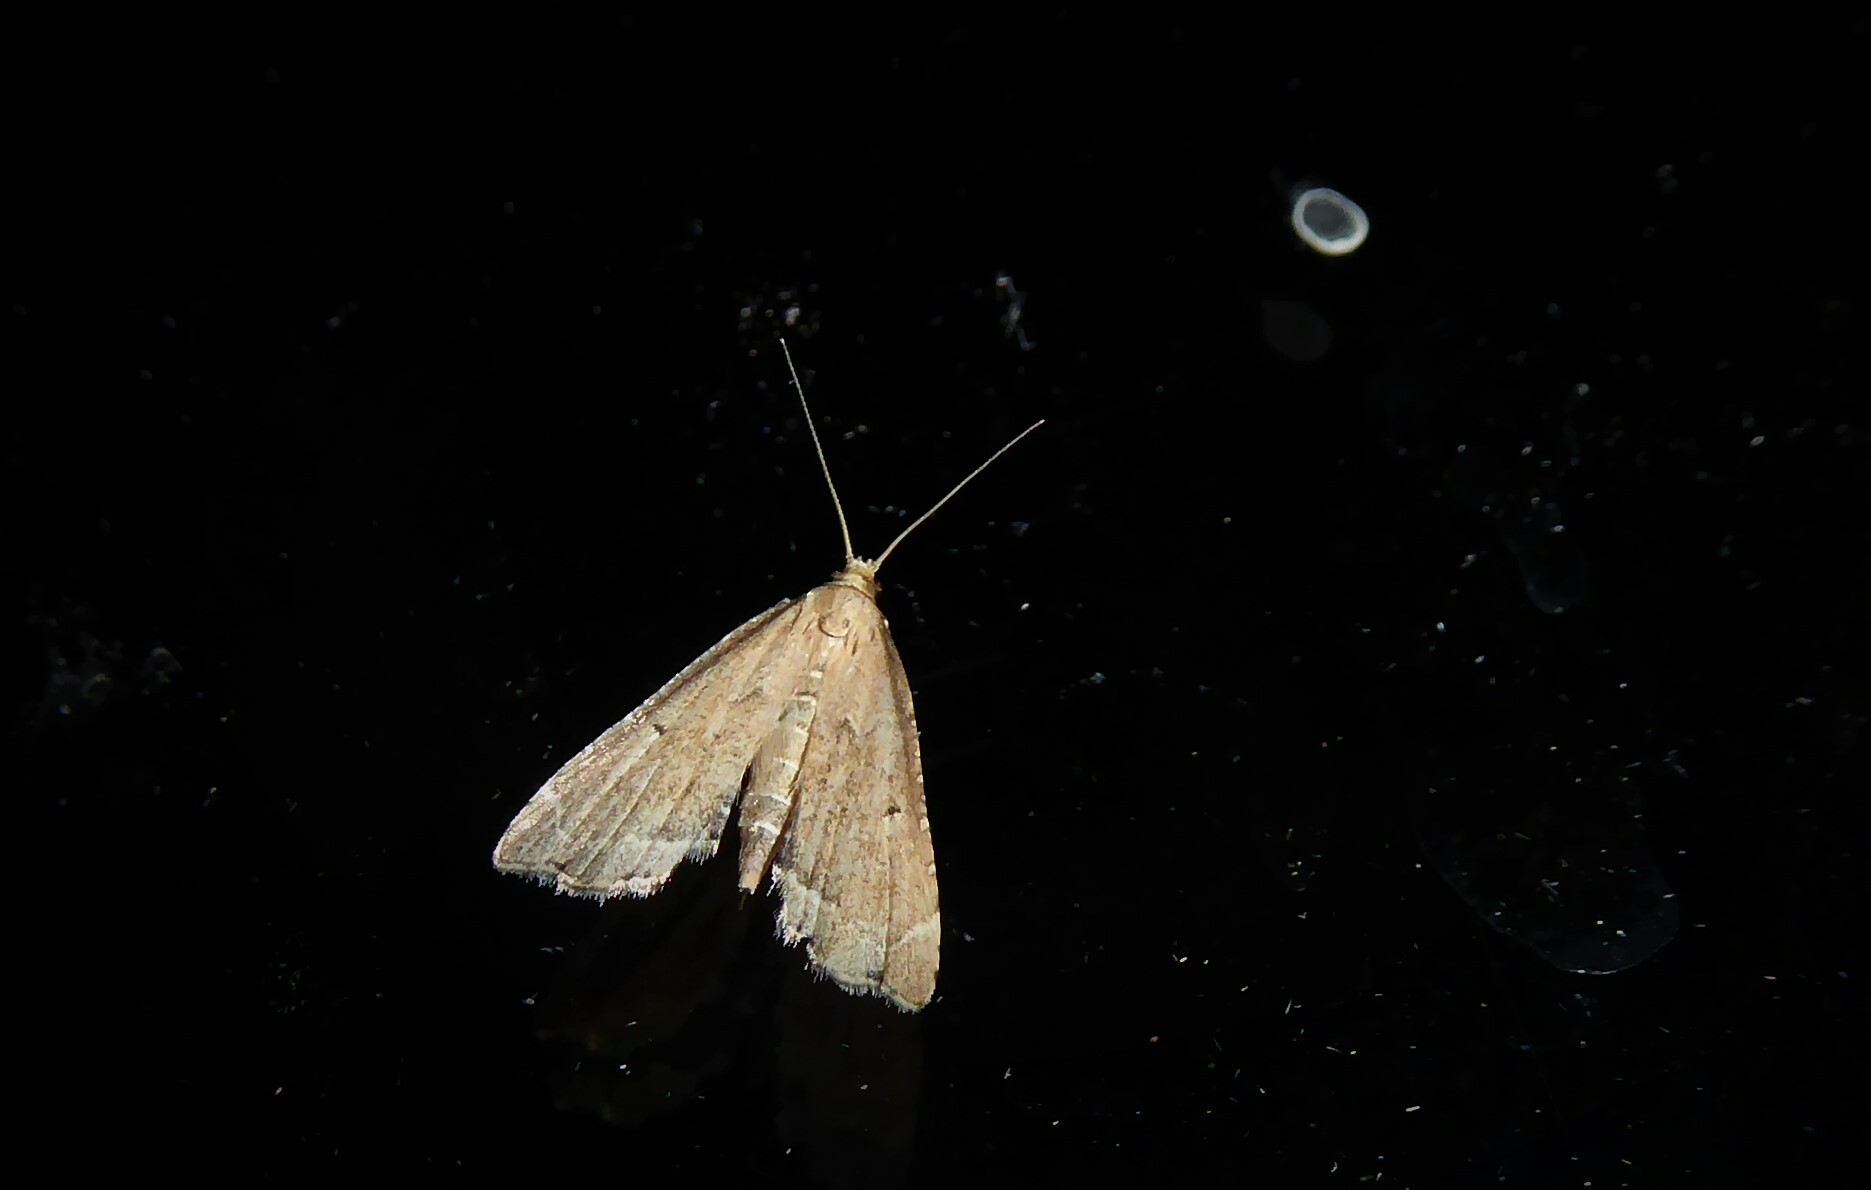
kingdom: Animalia
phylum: Arthropoda
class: Insecta
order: Lepidoptera
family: Crambidae
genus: Diplopseustis
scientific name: Diplopseustis perieresalis
